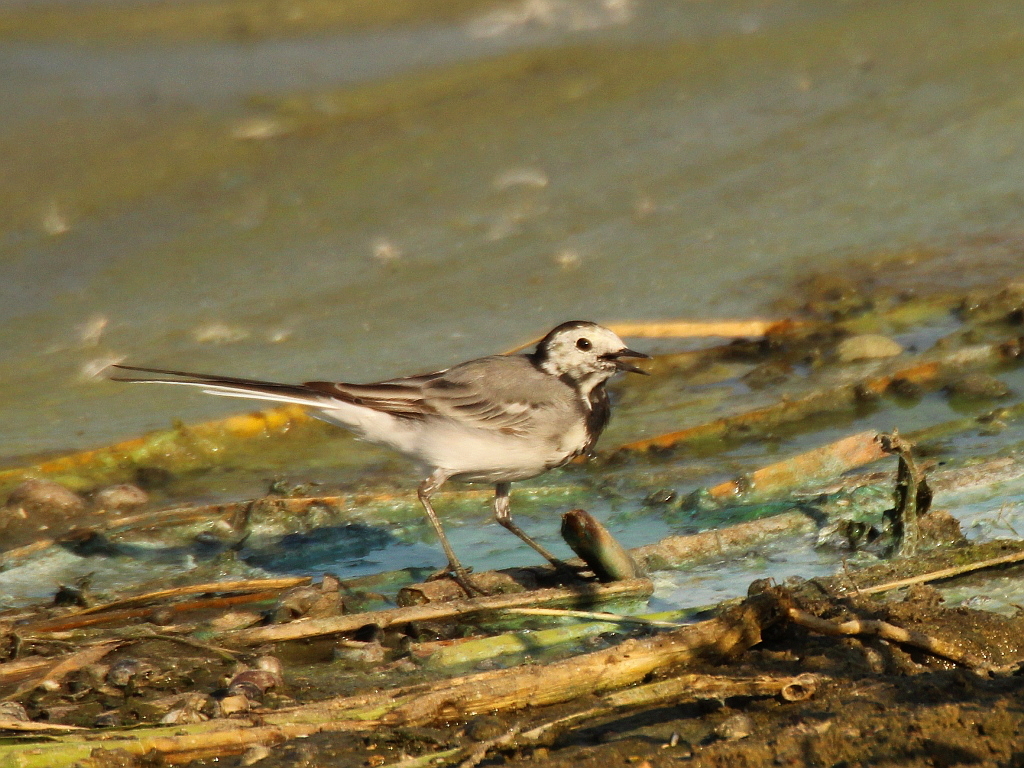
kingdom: Animalia
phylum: Chordata
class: Aves
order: Passeriformes
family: Motacillidae
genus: Motacilla
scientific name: Motacilla alba
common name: White wagtail
